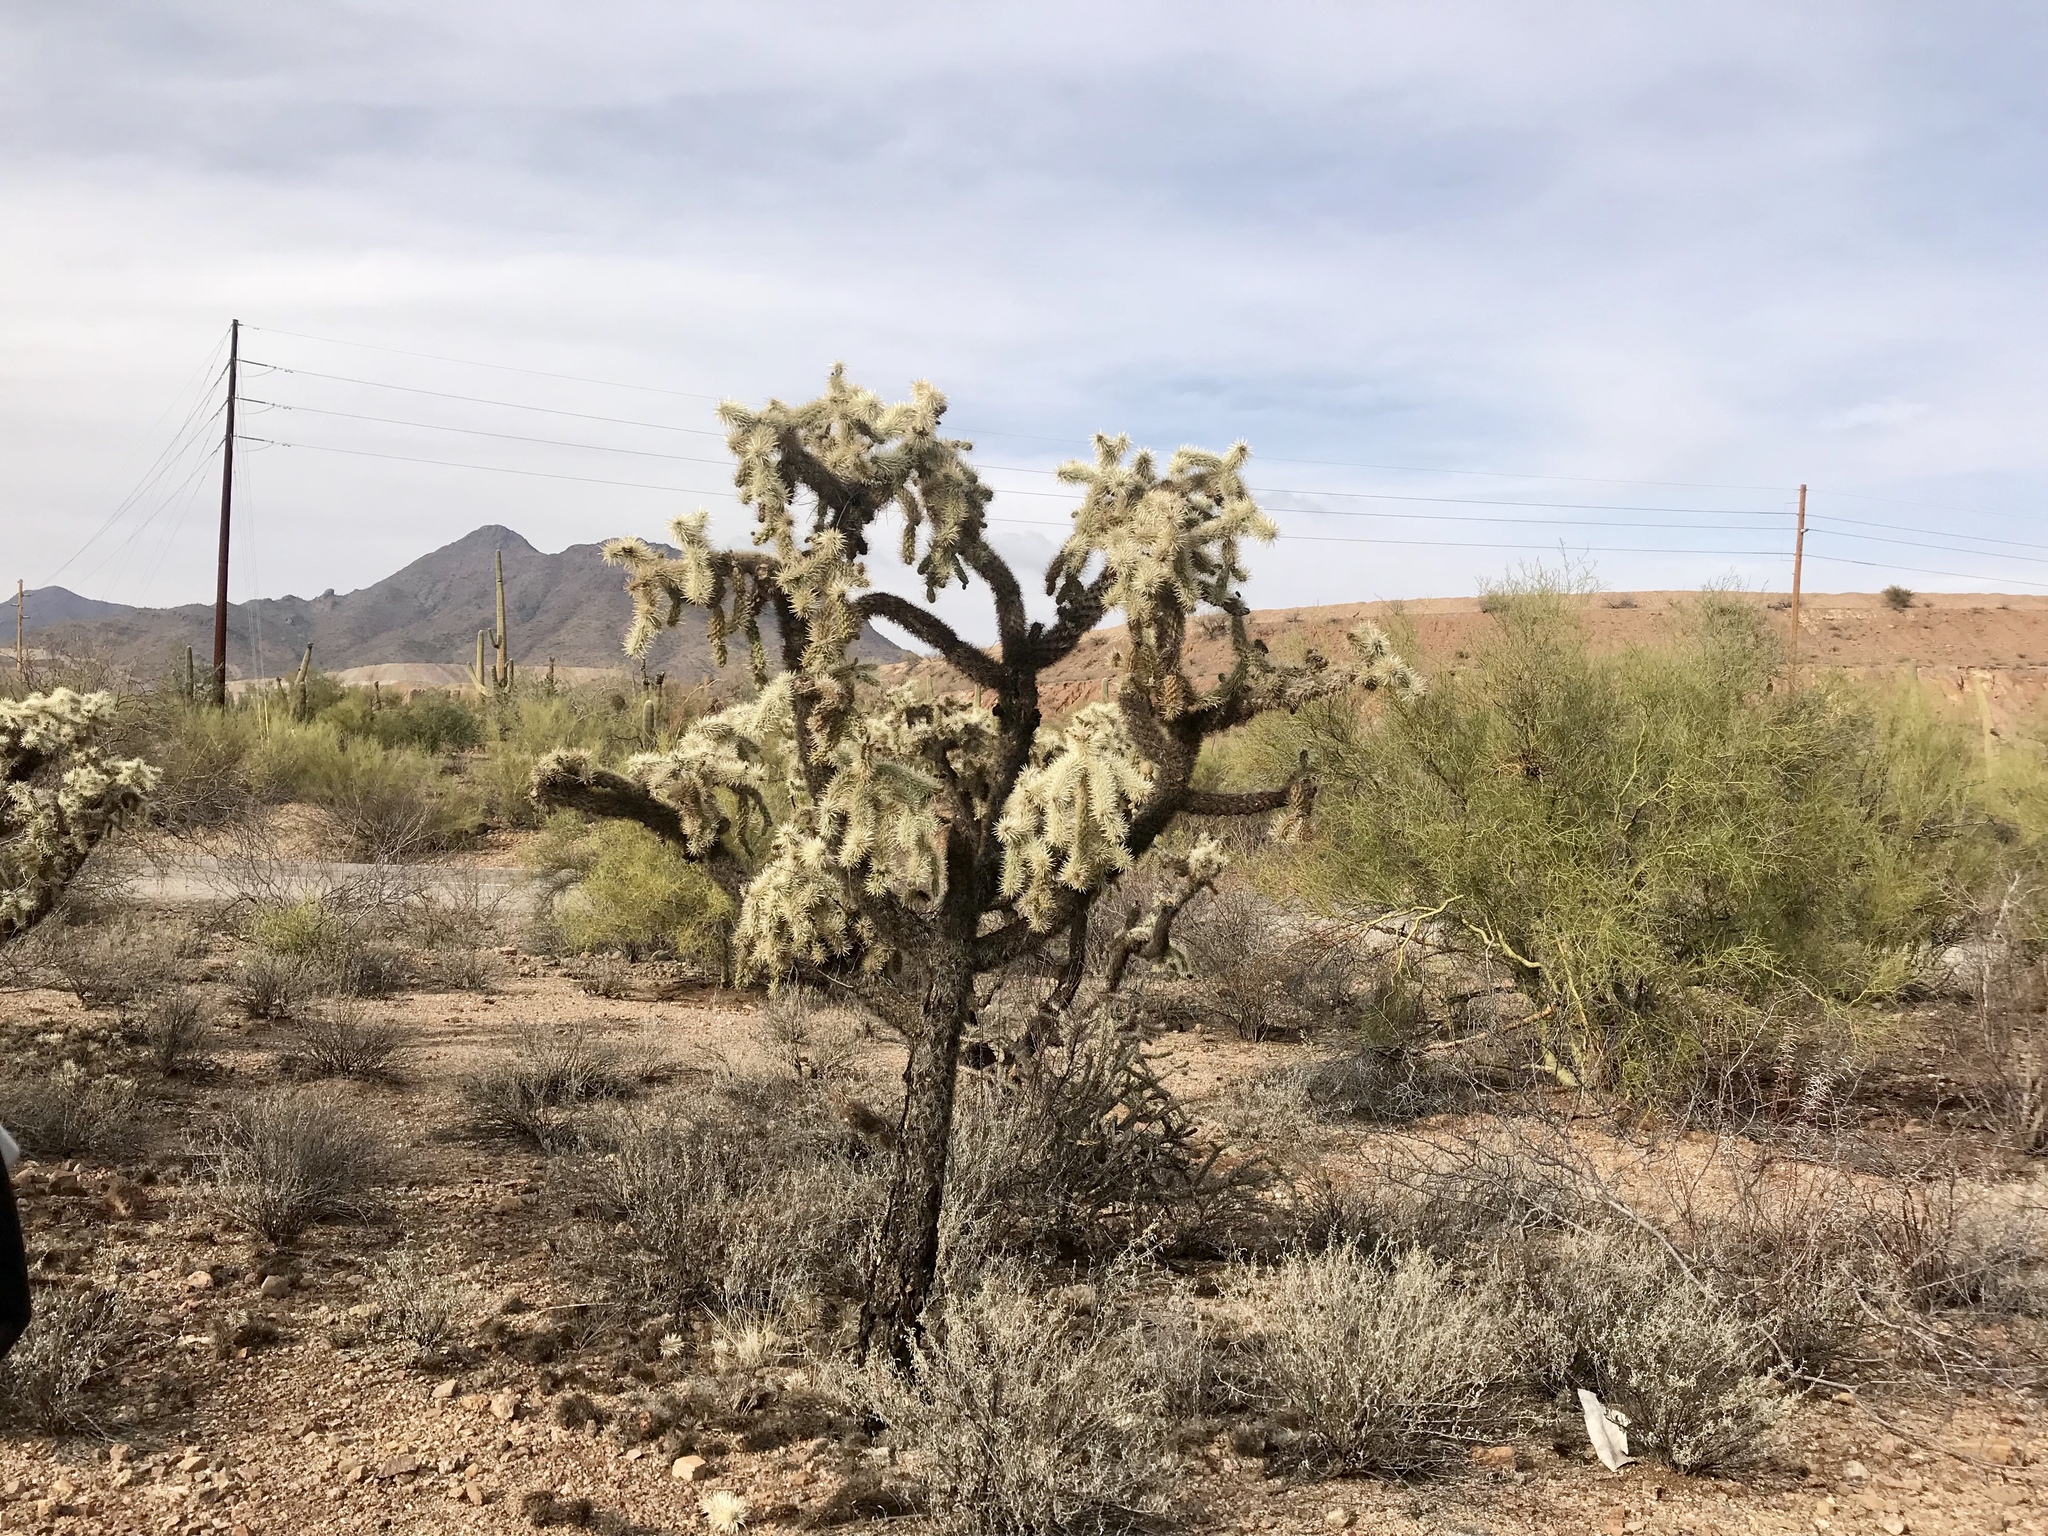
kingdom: Plantae
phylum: Tracheophyta
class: Magnoliopsida
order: Caryophyllales
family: Cactaceae
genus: Cylindropuntia
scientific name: Cylindropuntia fulgida
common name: Jumping cholla
